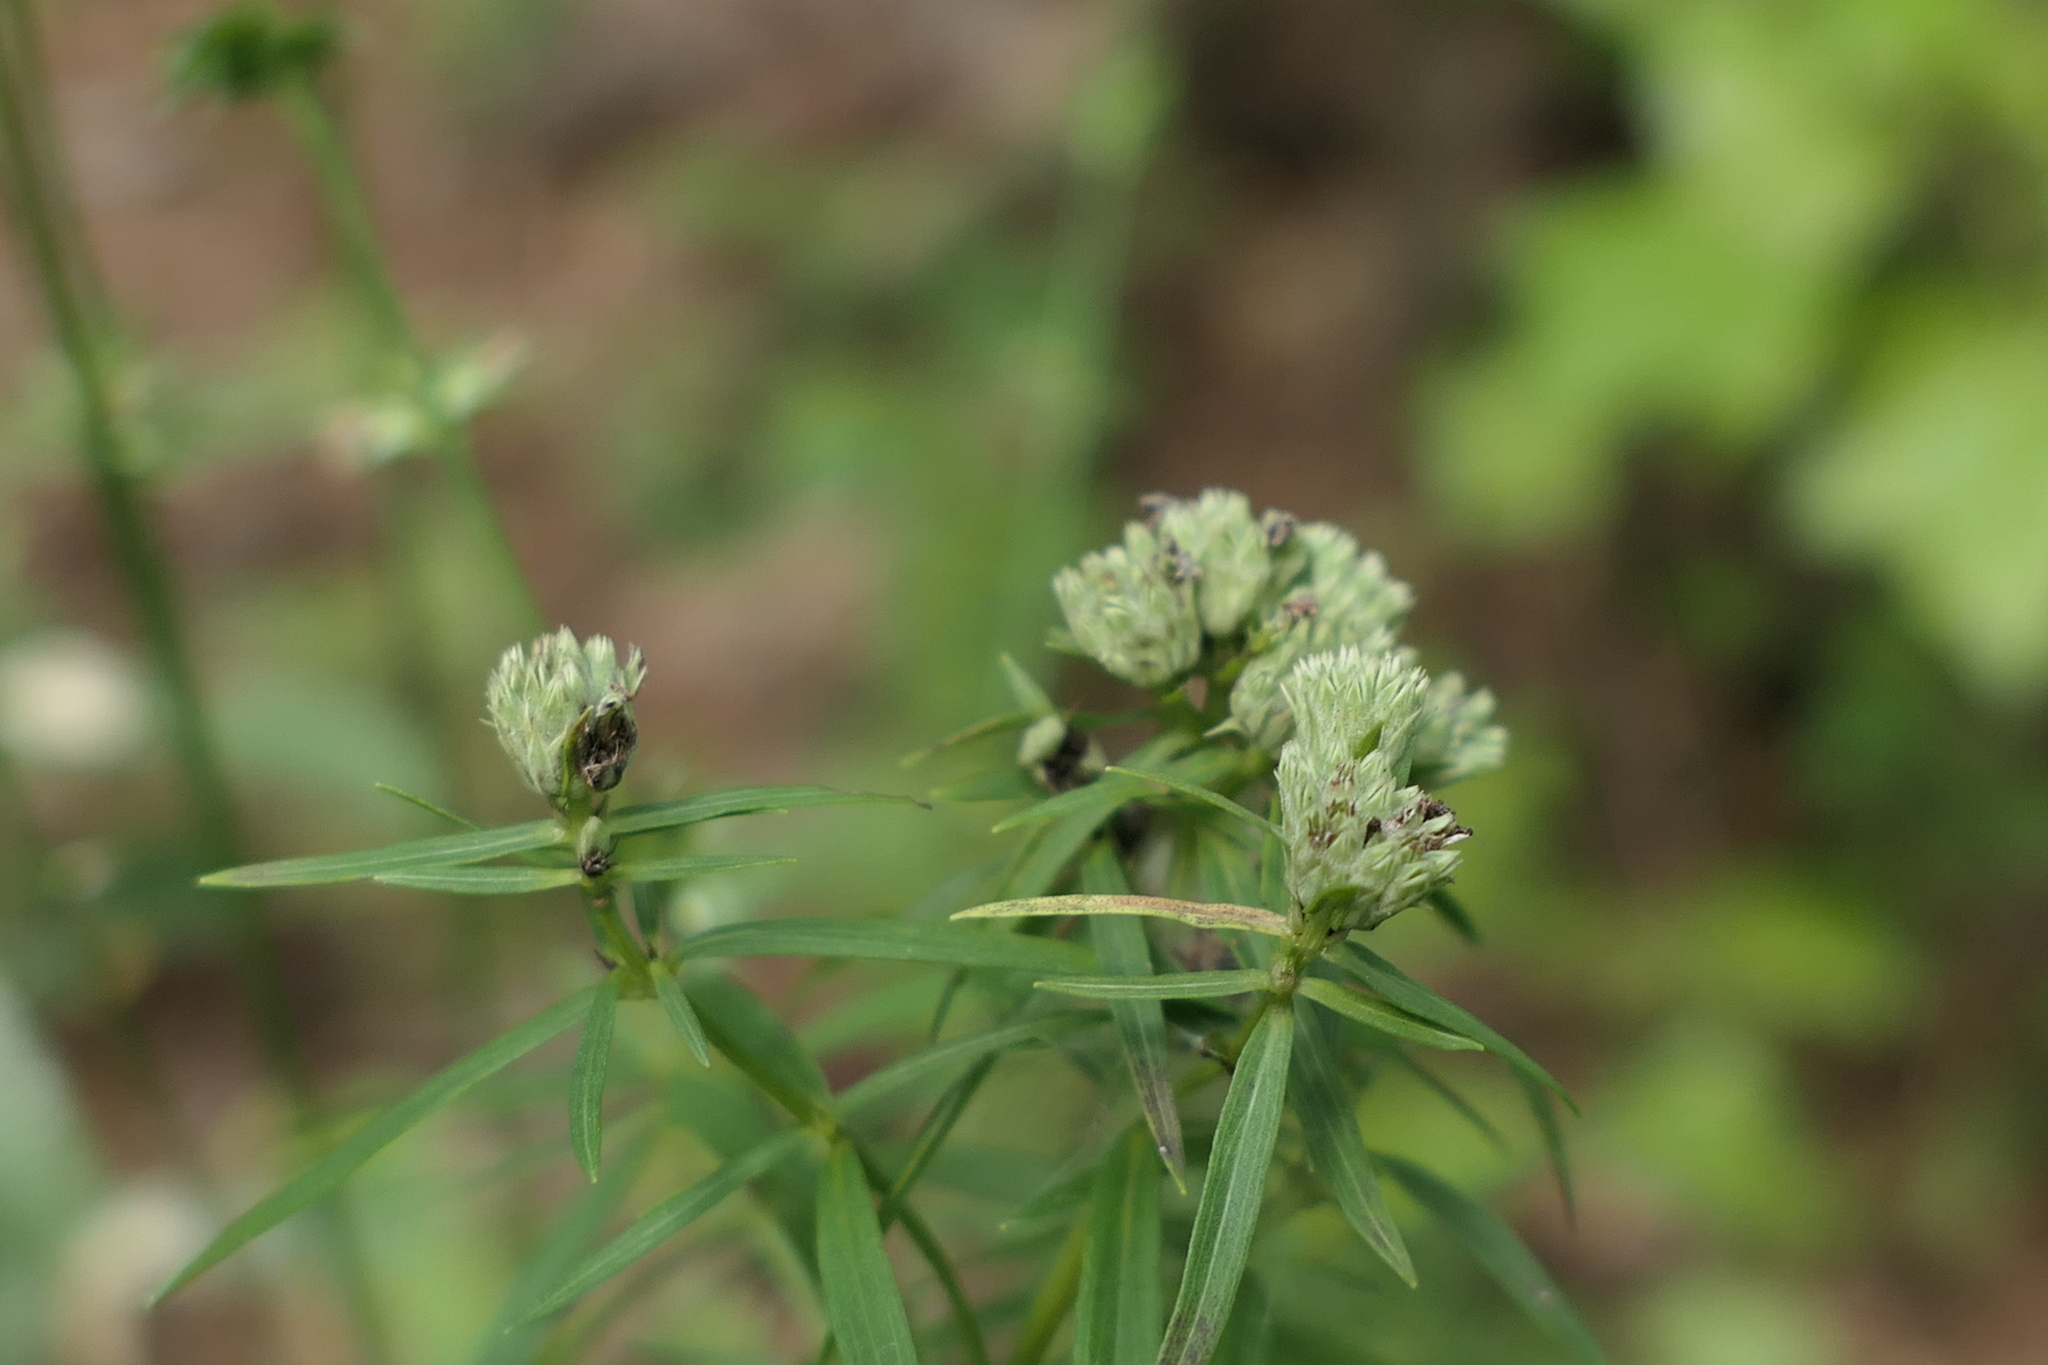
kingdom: Plantae
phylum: Tracheophyta
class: Magnoliopsida
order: Lamiales
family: Lamiaceae
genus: Pycnanthemum
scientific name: Pycnanthemum tenuifolium
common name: Narrow-leaf mountain-mint
